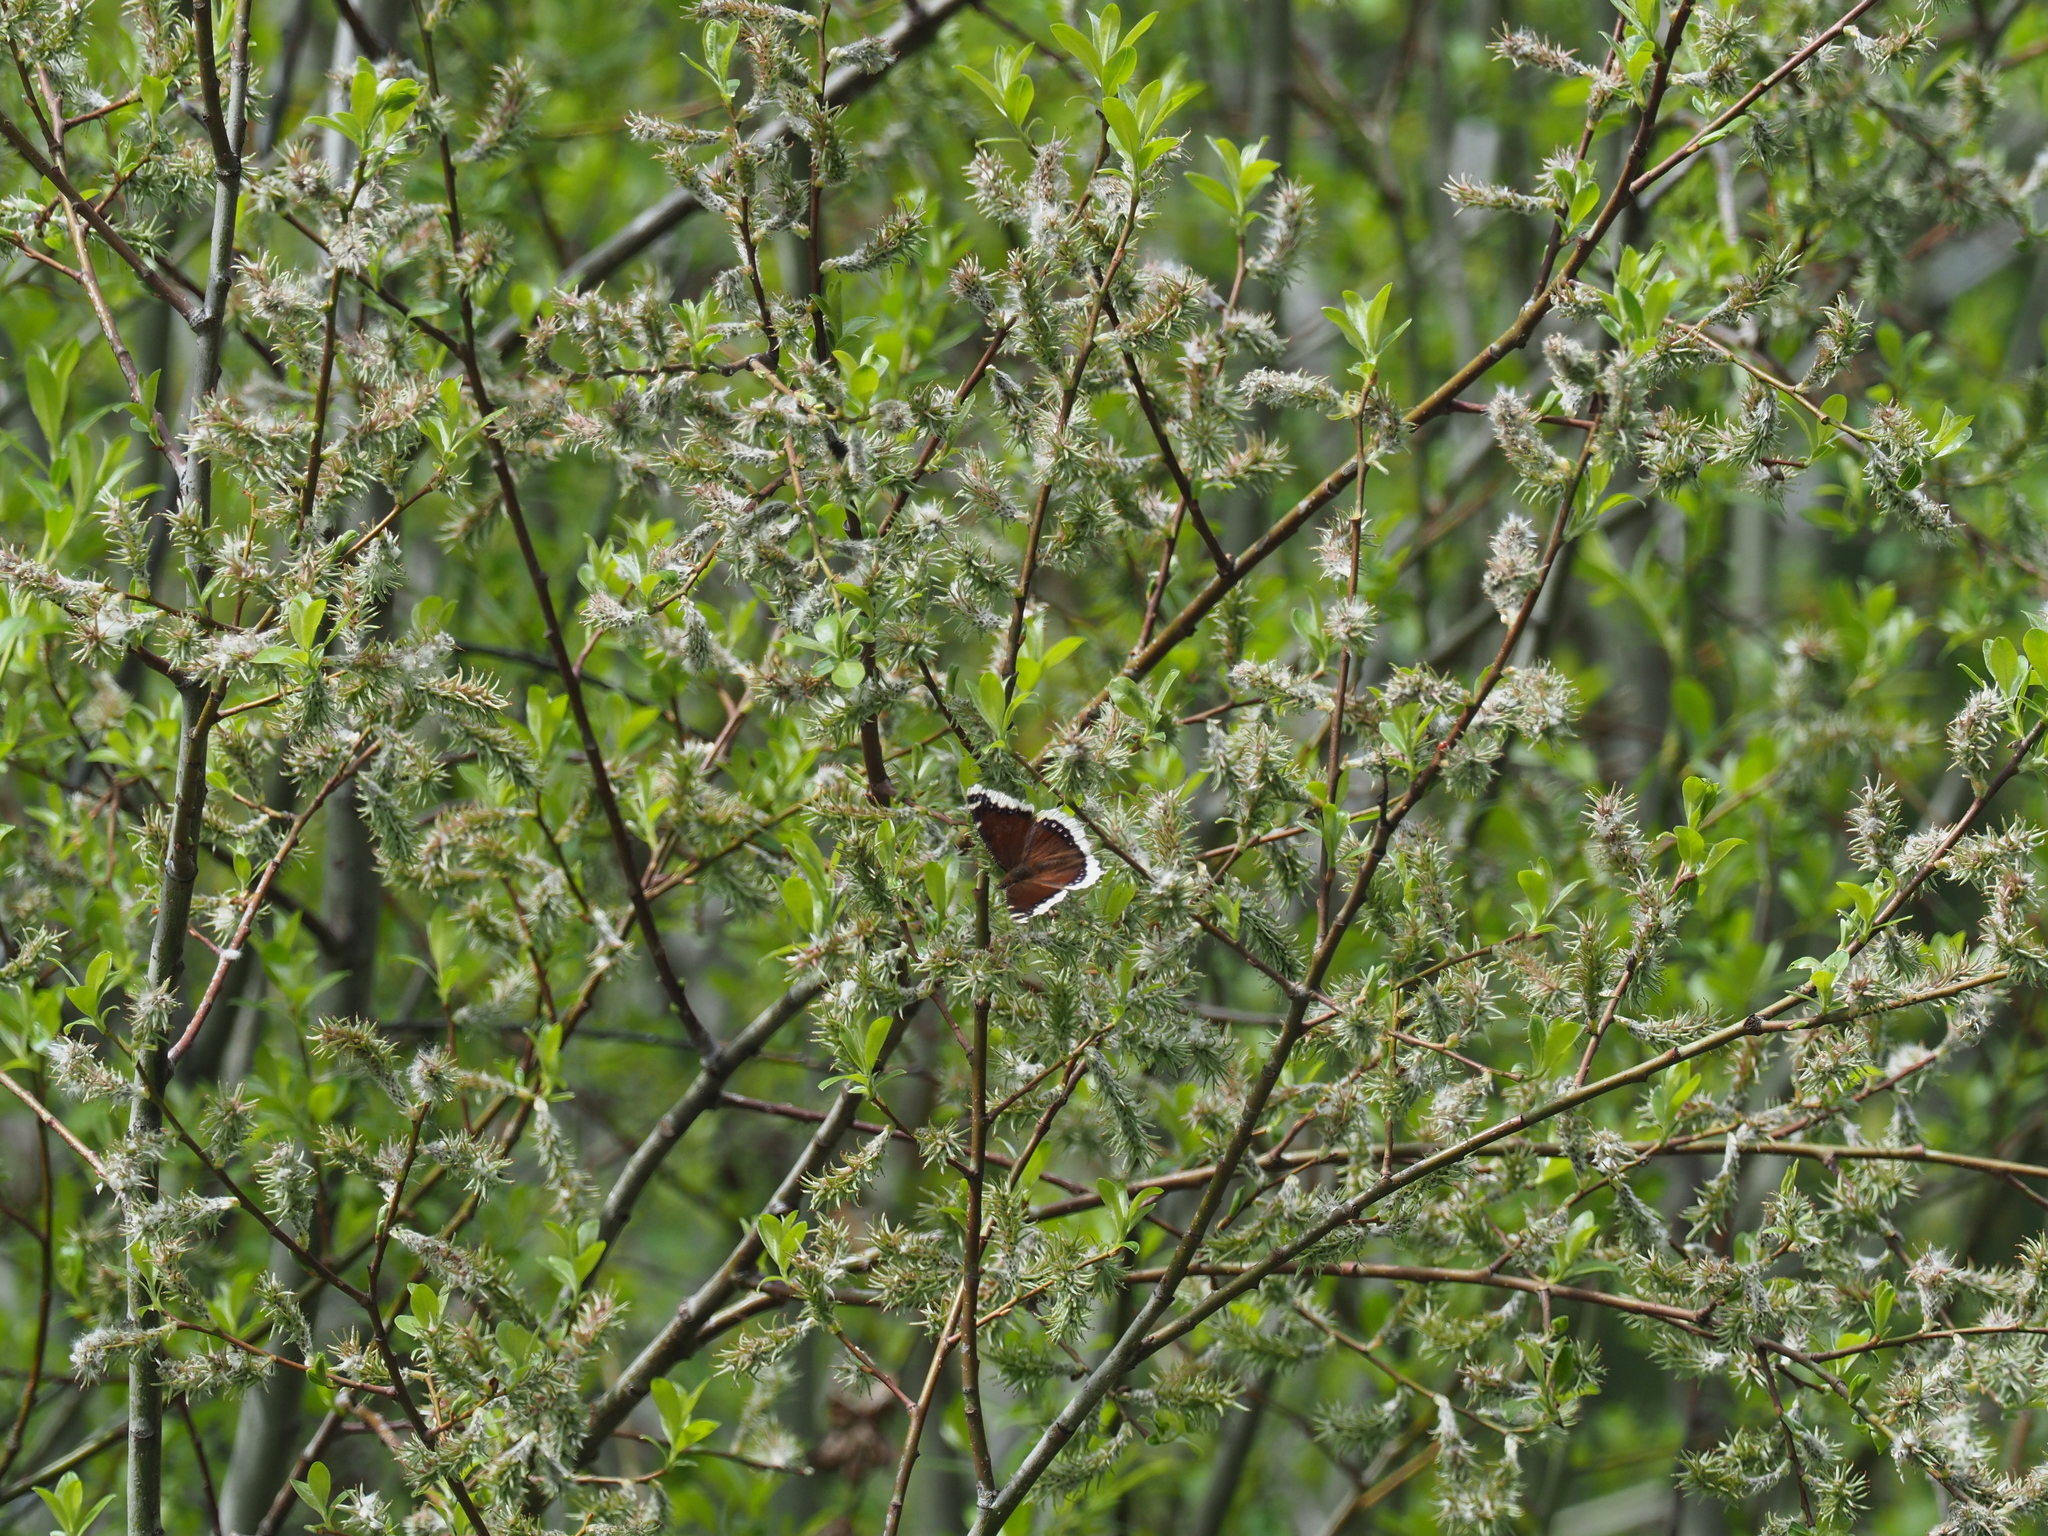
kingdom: Animalia
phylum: Arthropoda
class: Insecta
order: Lepidoptera
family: Nymphalidae
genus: Nymphalis
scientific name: Nymphalis antiopa
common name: Camberwell beauty
